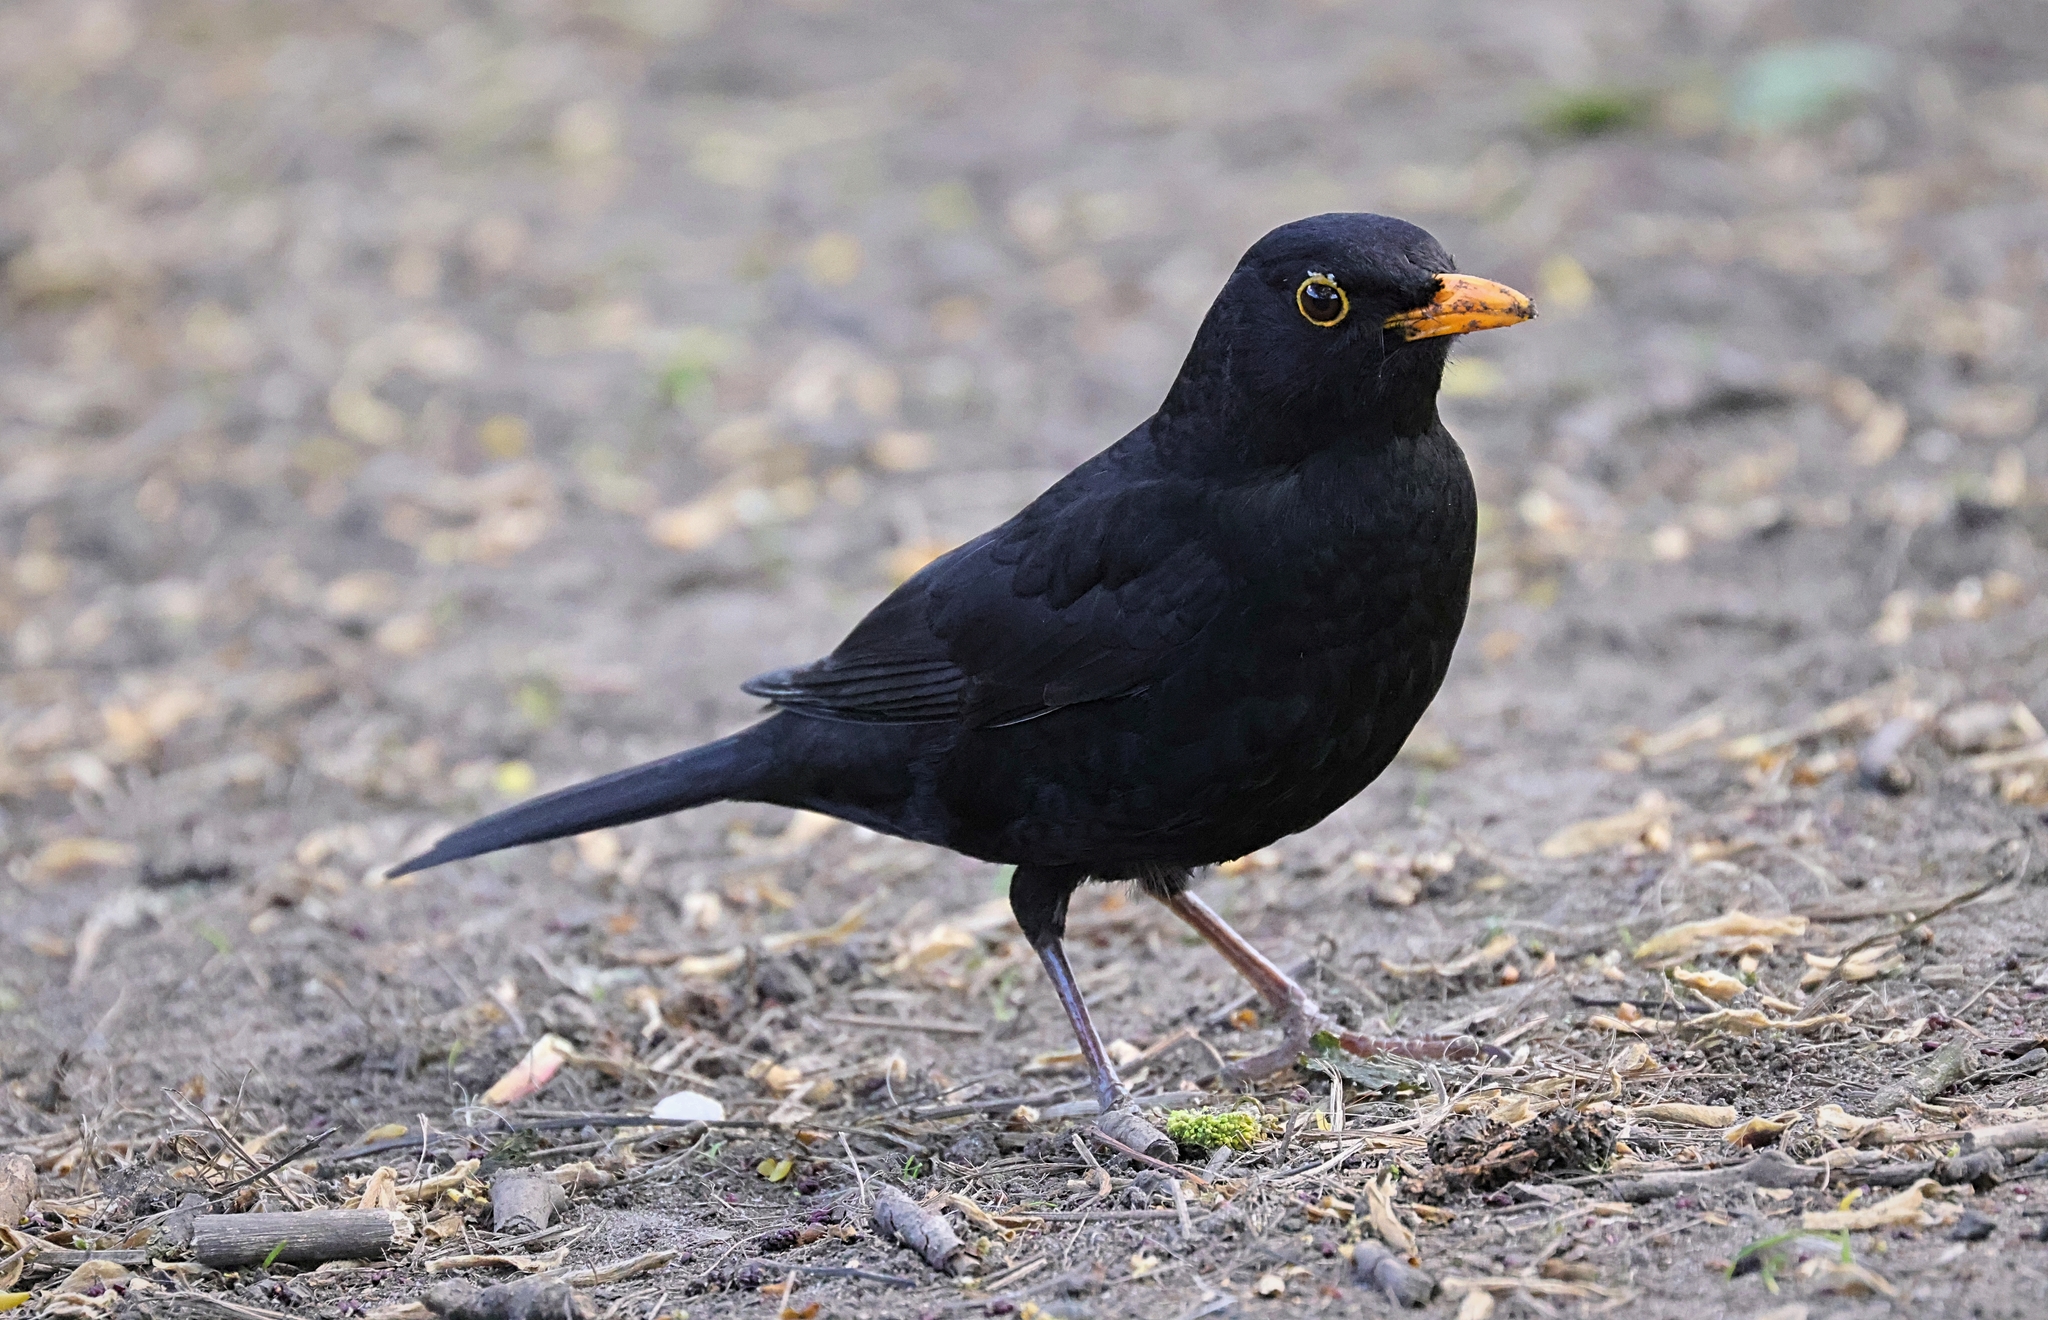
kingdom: Animalia
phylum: Chordata
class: Aves
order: Passeriformes
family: Turdidae
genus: Turdus
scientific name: Turdus merula
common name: Common blackbird
